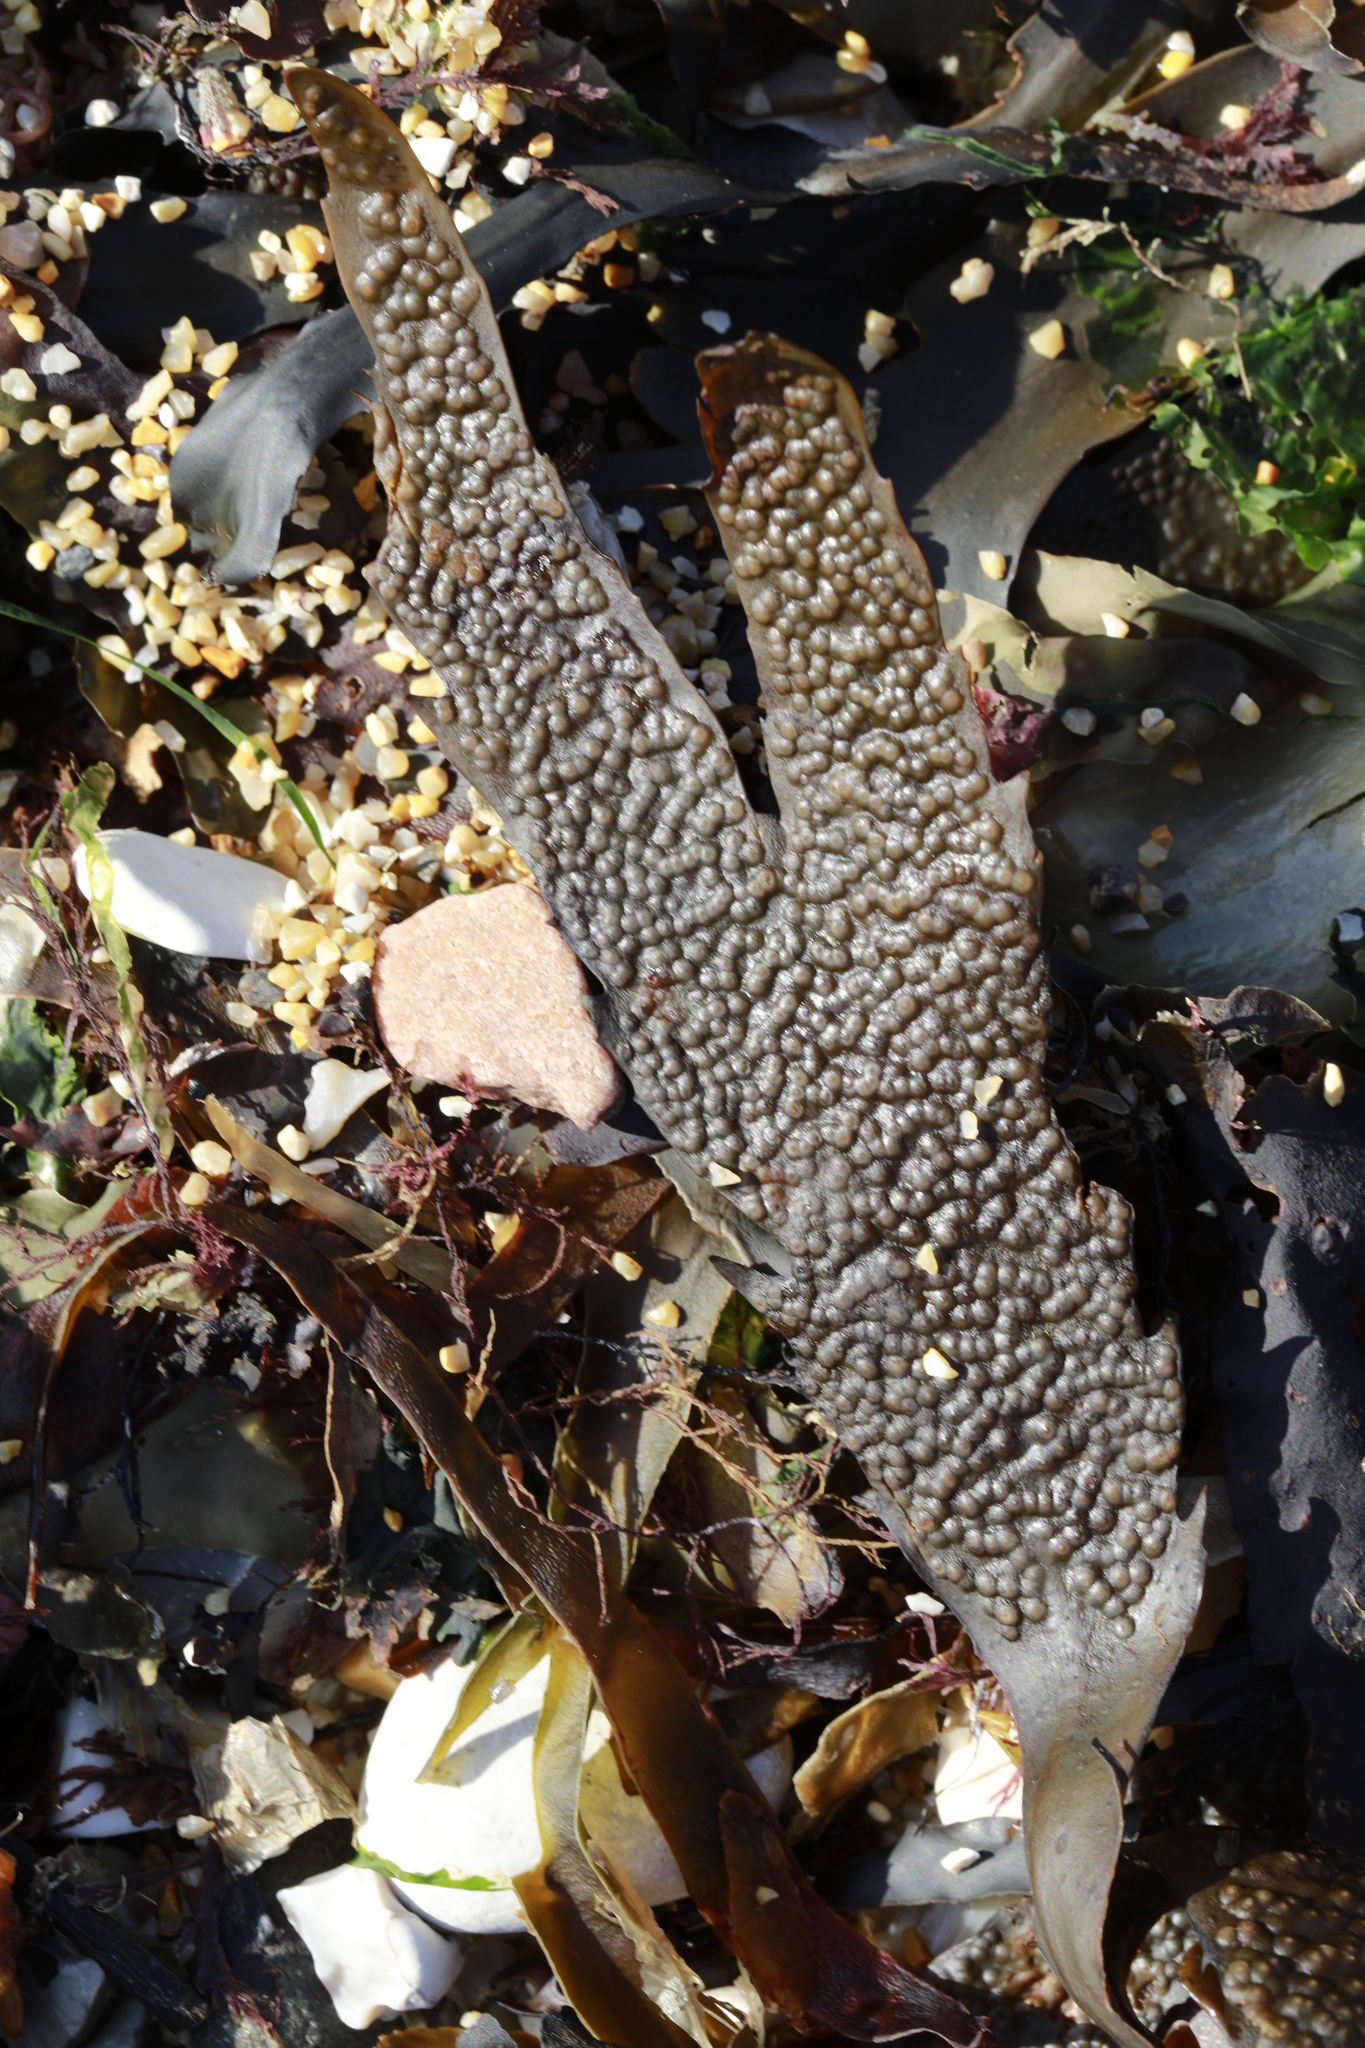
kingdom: Chromista
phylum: Ochrophyta
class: Phaeophyceae
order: Fucales
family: Fucaceae
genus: Fucus
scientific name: Fucus serratus
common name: Toothed wrack
